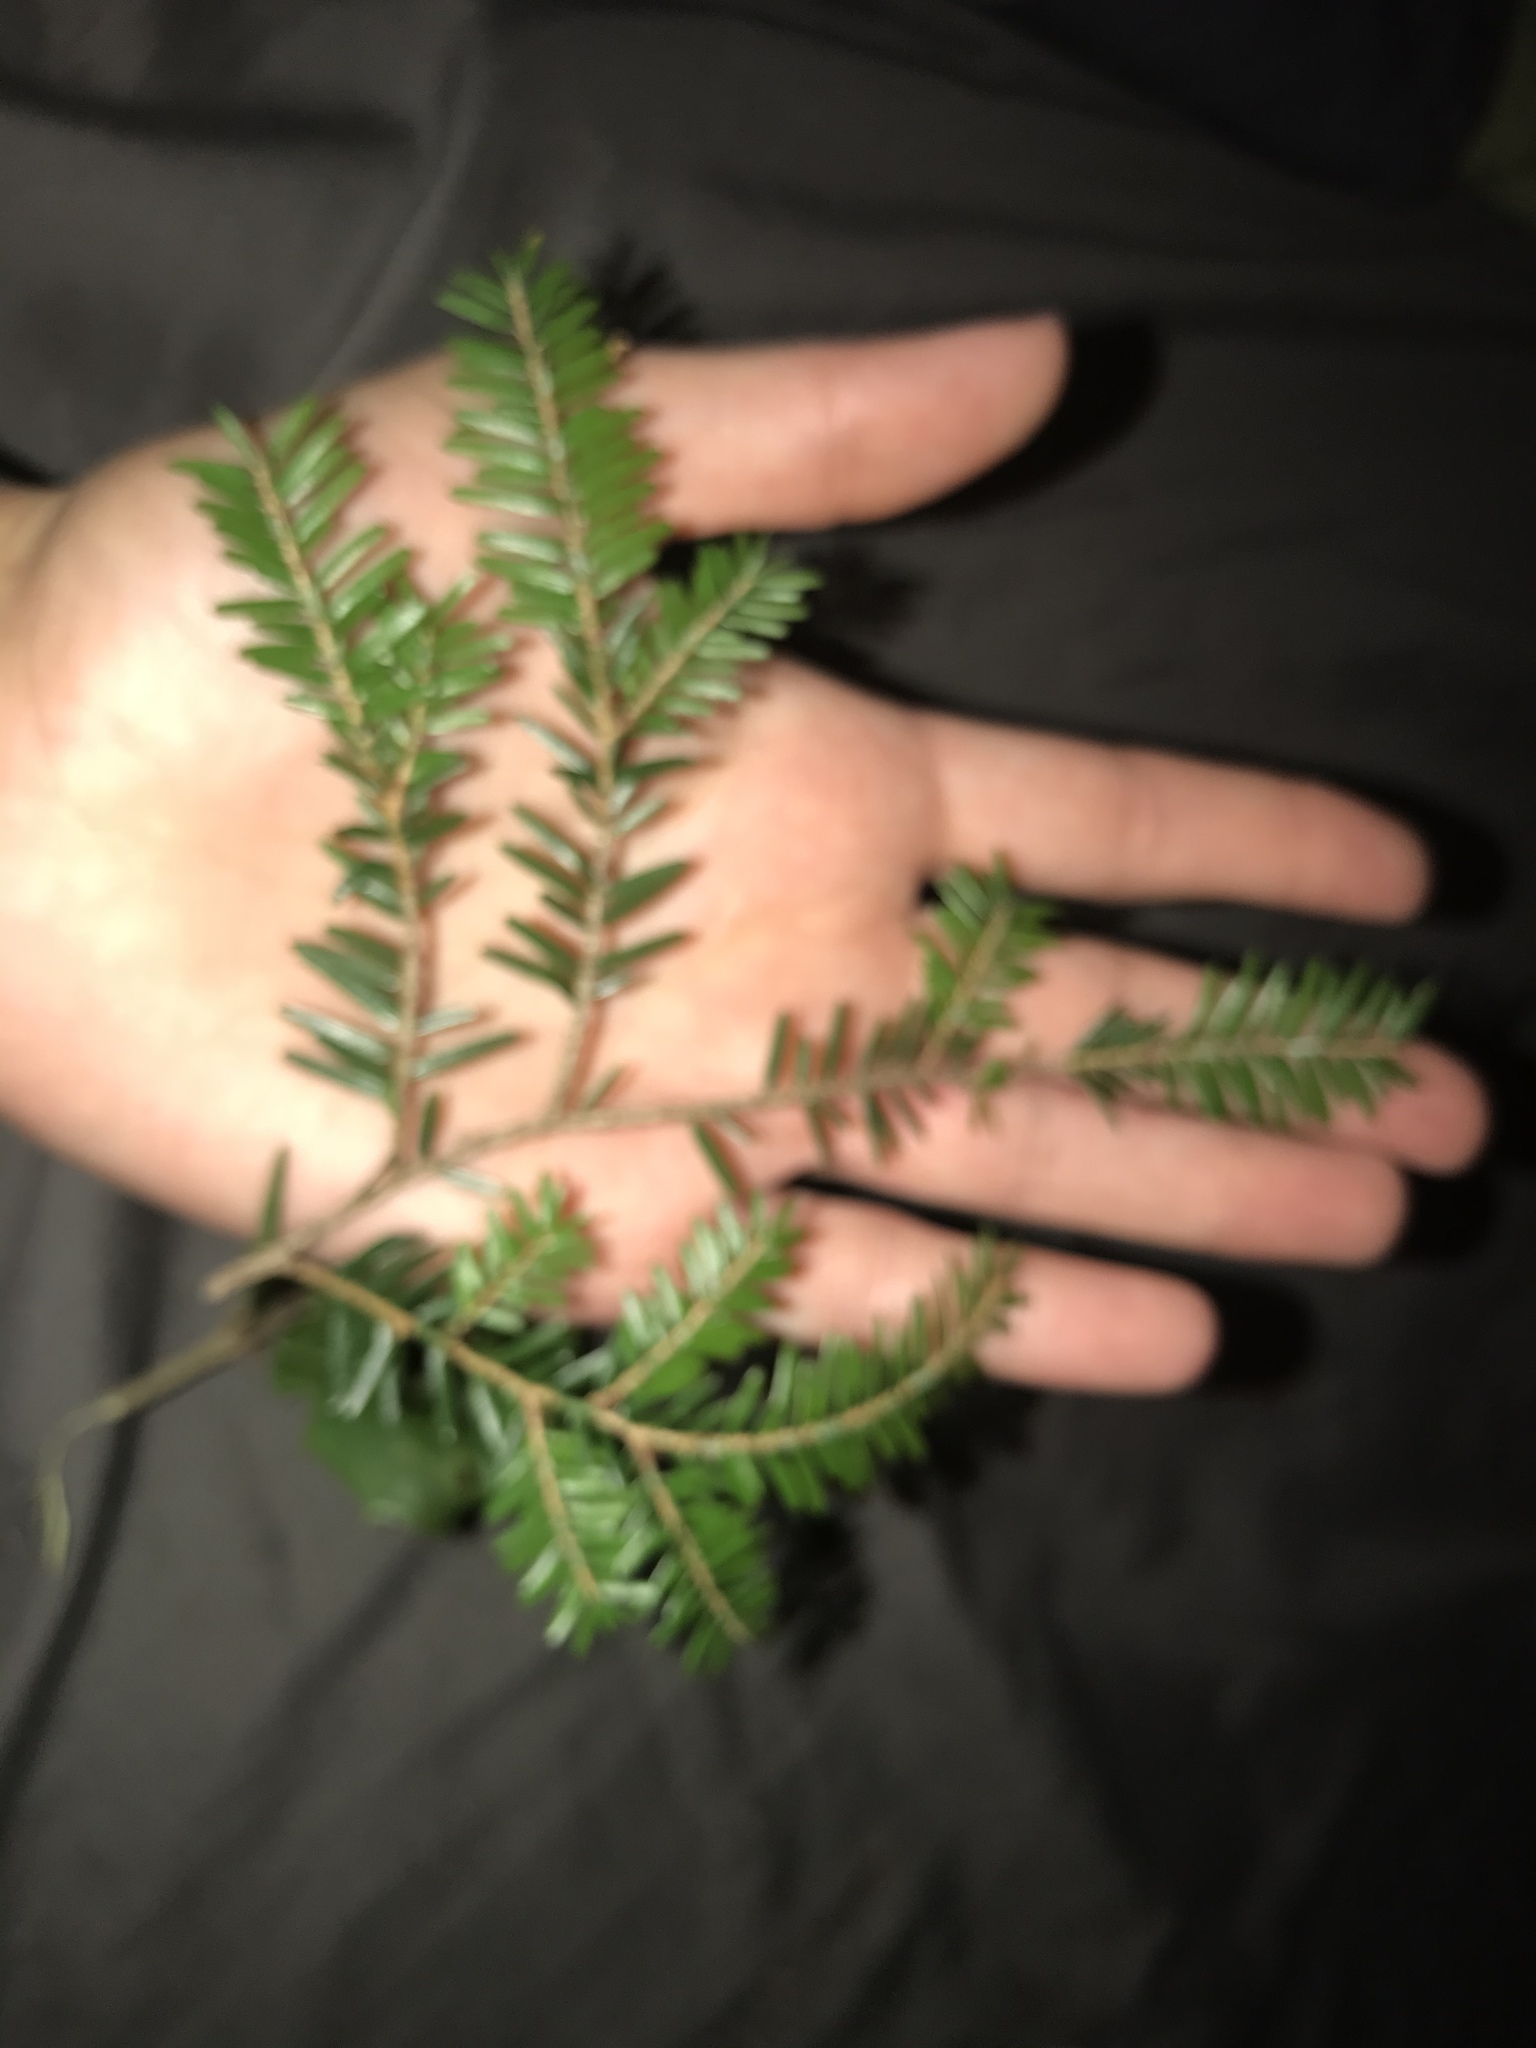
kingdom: Plantae
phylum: Tracheophyta
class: Pinopsida
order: Pinales
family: Pinaceae
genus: Tsuga
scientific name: Tsuga canadensis
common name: Eastern hemlock
